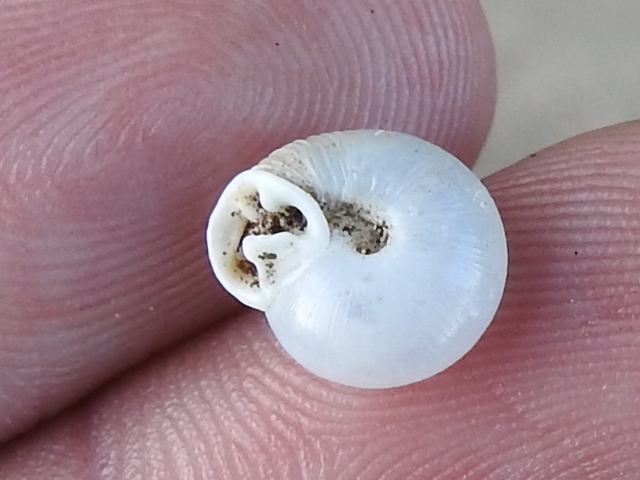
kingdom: Animalia
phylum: Mollusca
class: Gastropoda
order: Stylommatophora
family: Polygyridae
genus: Linisa
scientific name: Linisa texasiana
